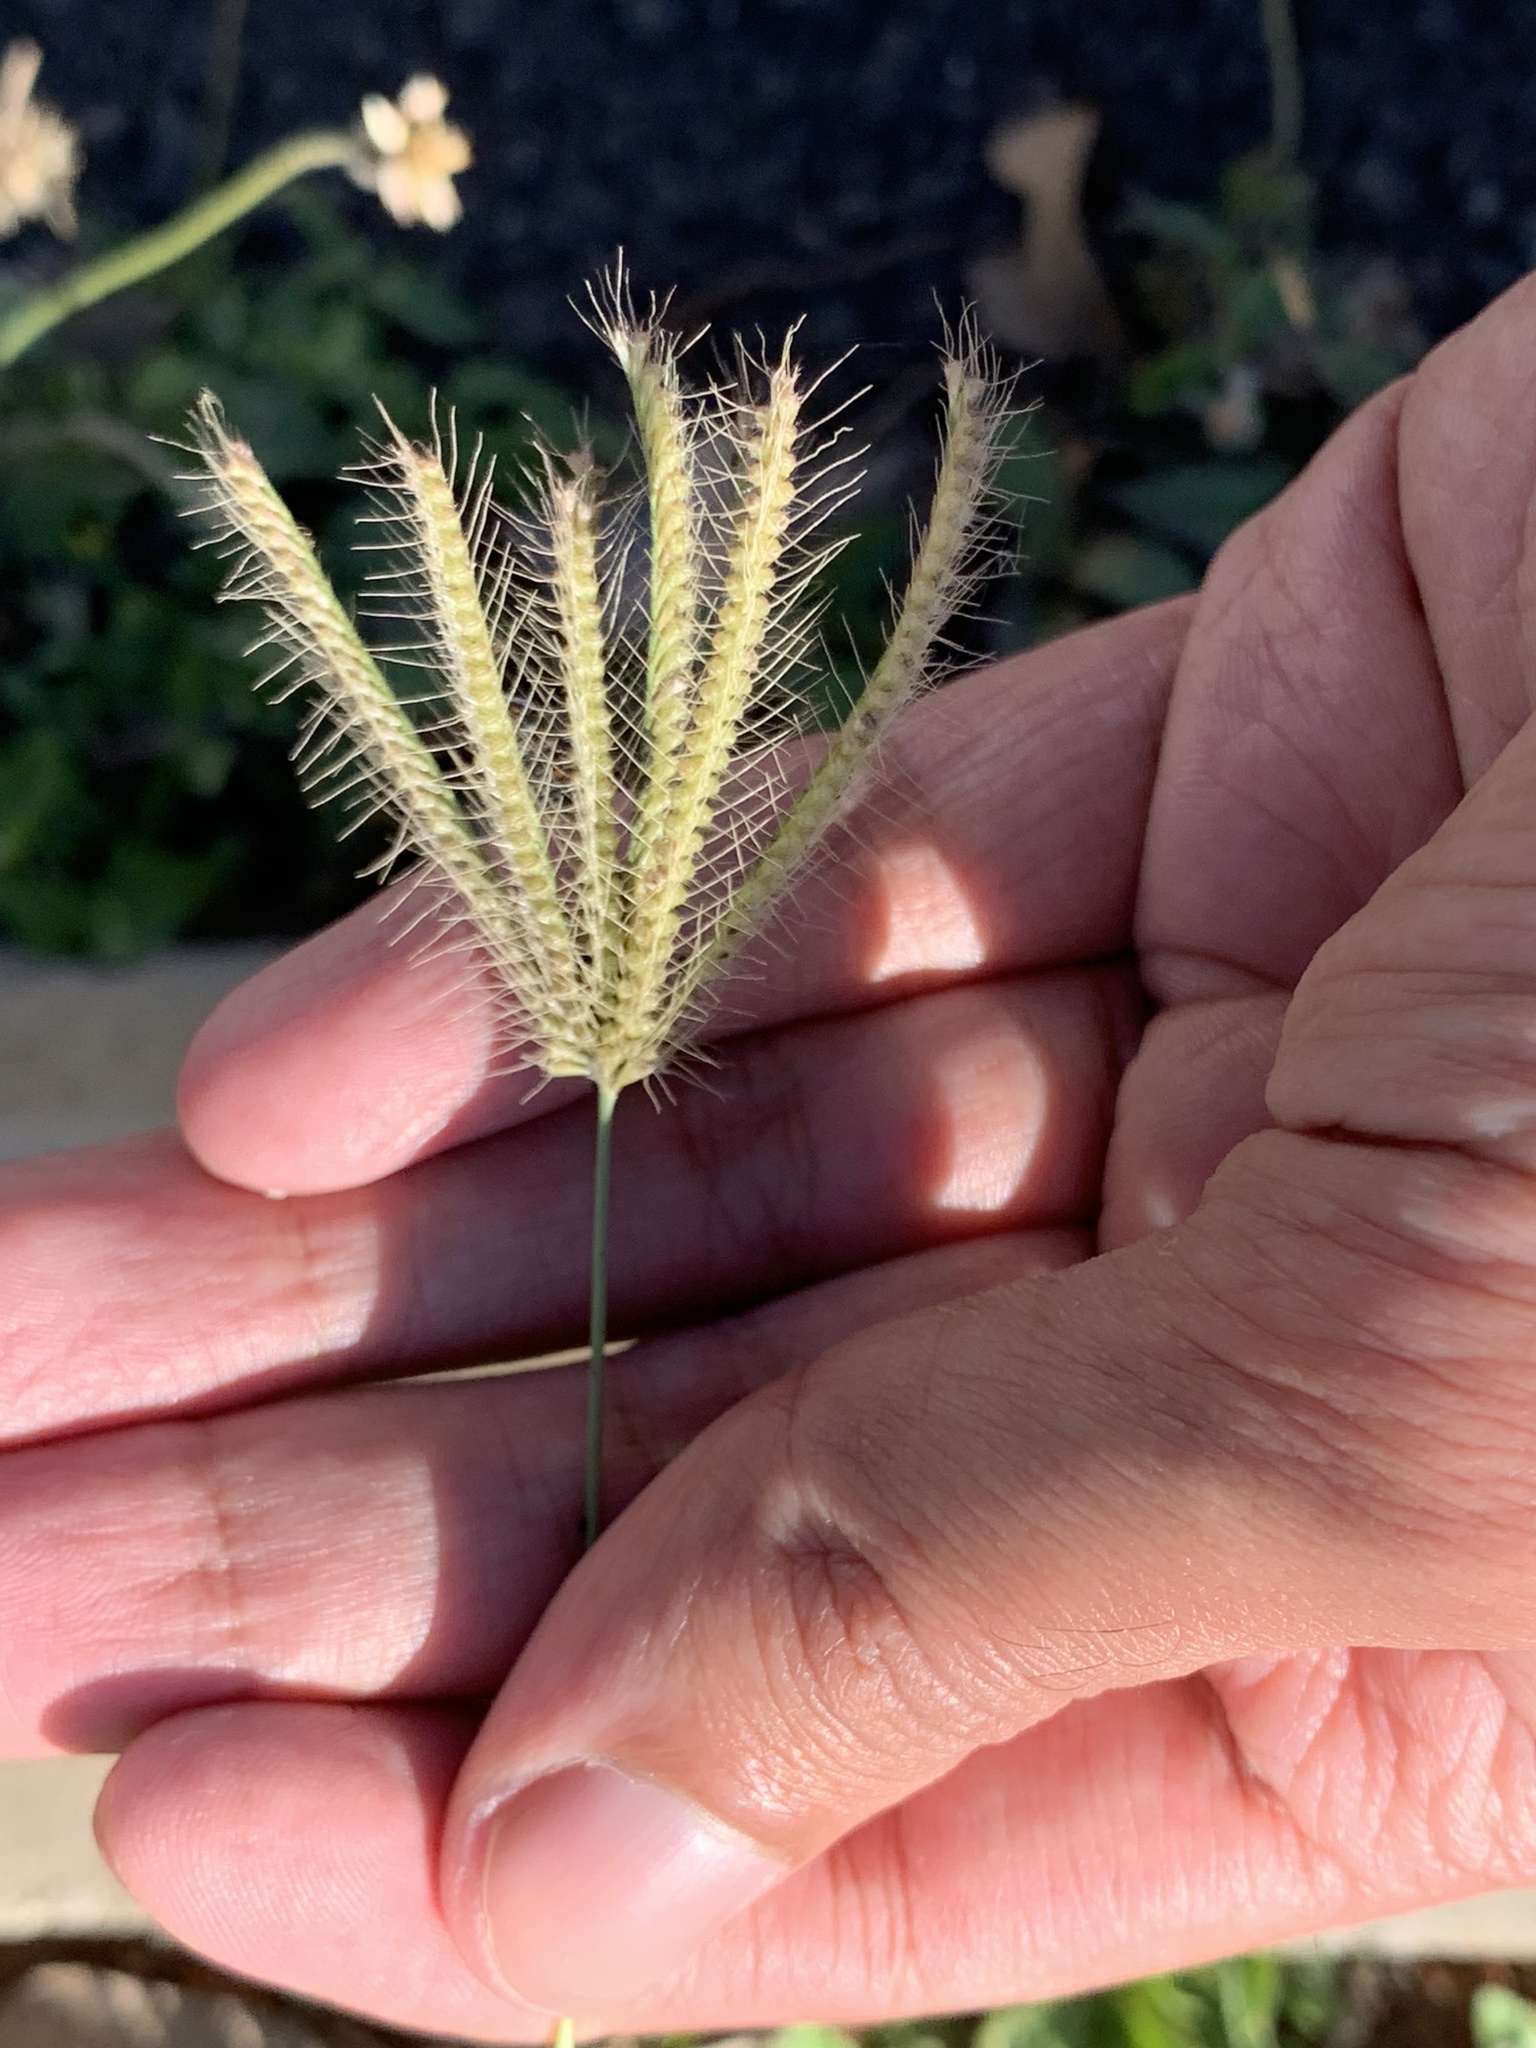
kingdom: Plantae
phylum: Tracheophyta
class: Liliopsida
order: Poales
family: Poaceae
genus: Dactyloctenium
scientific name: Dactyloctenium aegyptium
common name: Egyptian grass
